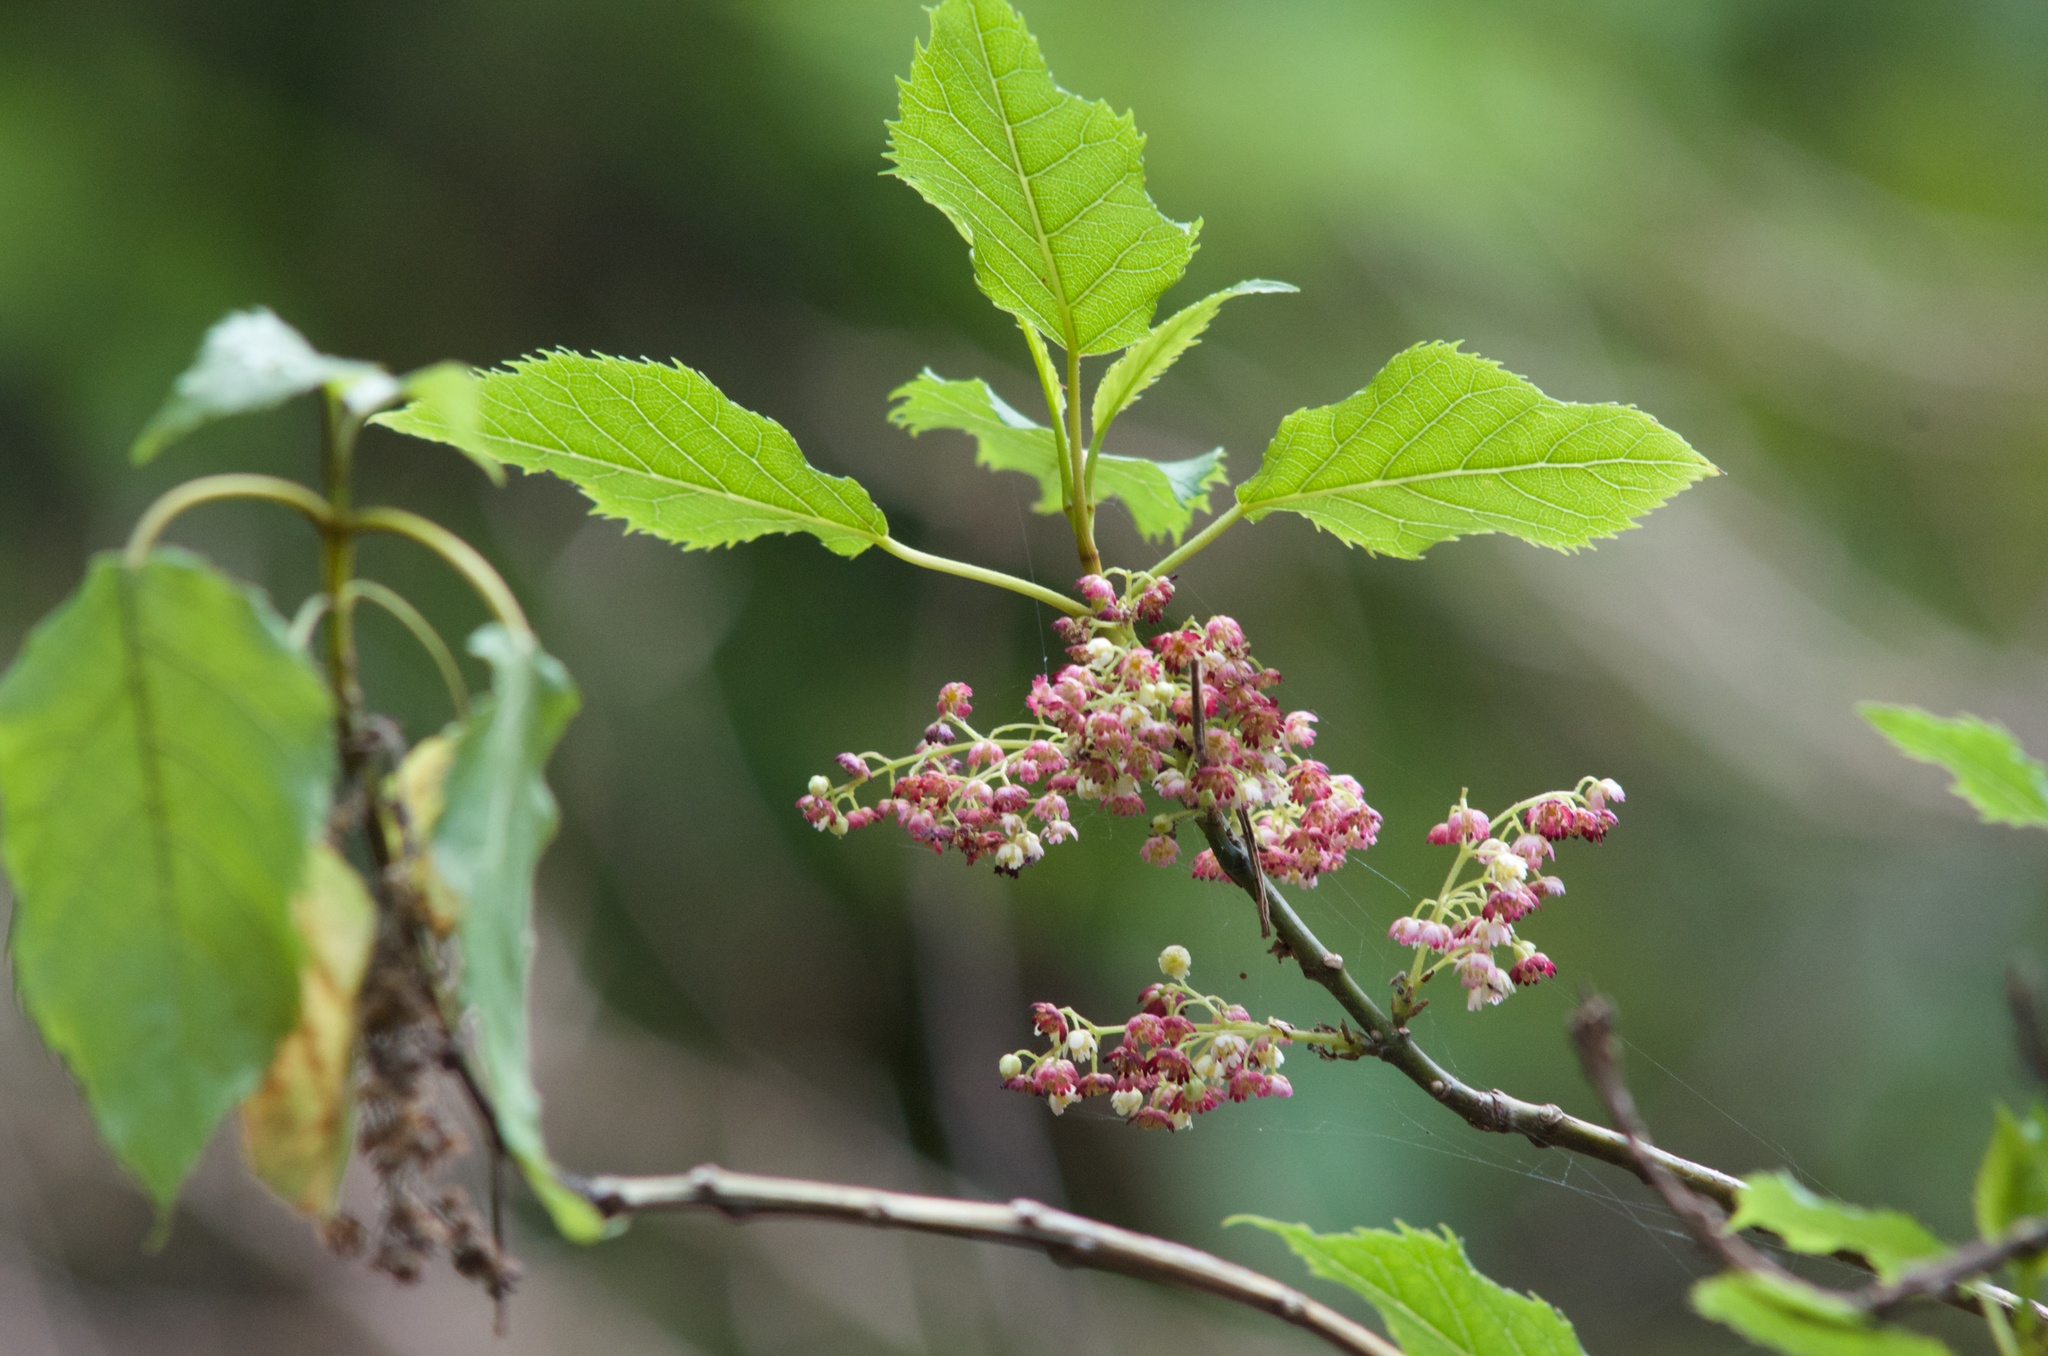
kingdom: Plantae
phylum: Tracheophyta
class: Magnoliopsida
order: Oxalidales
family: Elaeocarpaceae
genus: Aristotelia
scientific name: Aristotelia serrata
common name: New zealand wineberry
